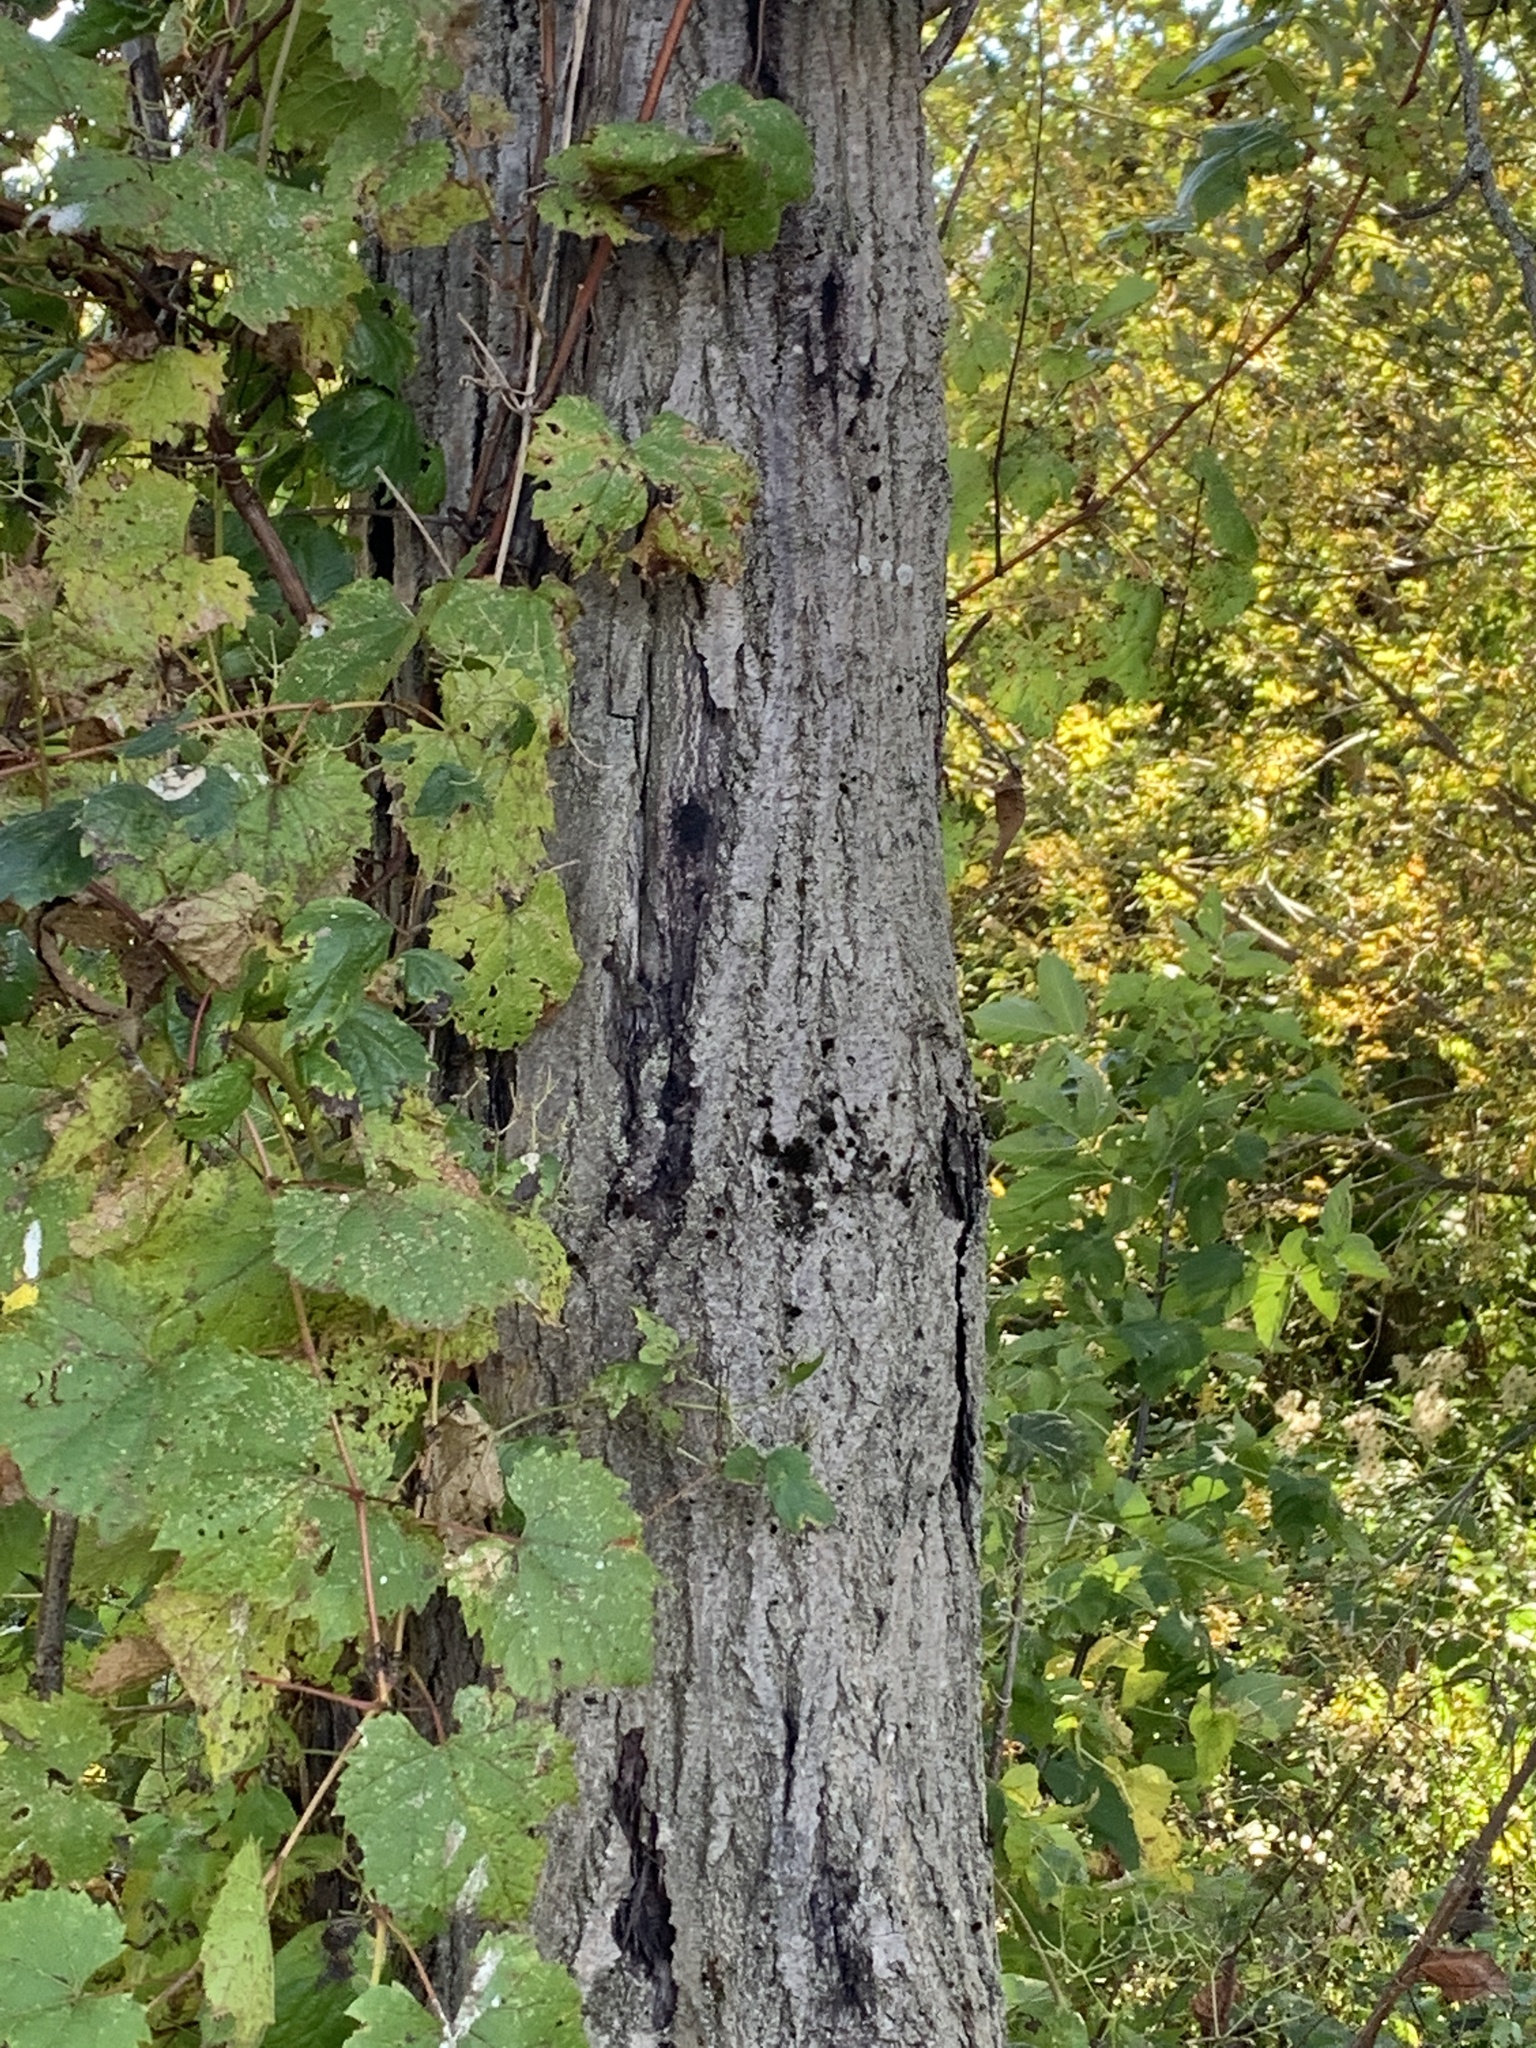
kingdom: Plantae
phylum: Tracheophyta
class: Magnoliopsida
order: Fagales
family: Juglandaceae
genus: Juglans
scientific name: Juglans cinerea
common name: Butternut
